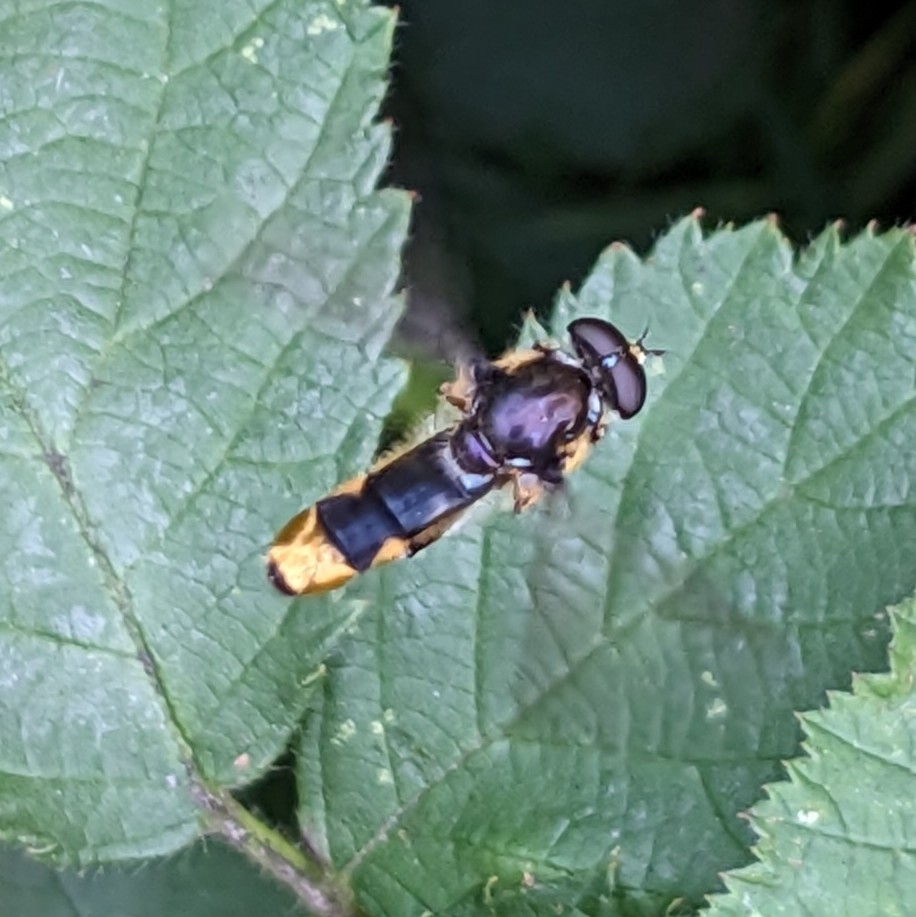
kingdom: Animalia
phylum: Arthropoda
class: Insecta
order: Diptera
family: Syrphidae
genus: Xylota
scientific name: Xylota sylvarum
